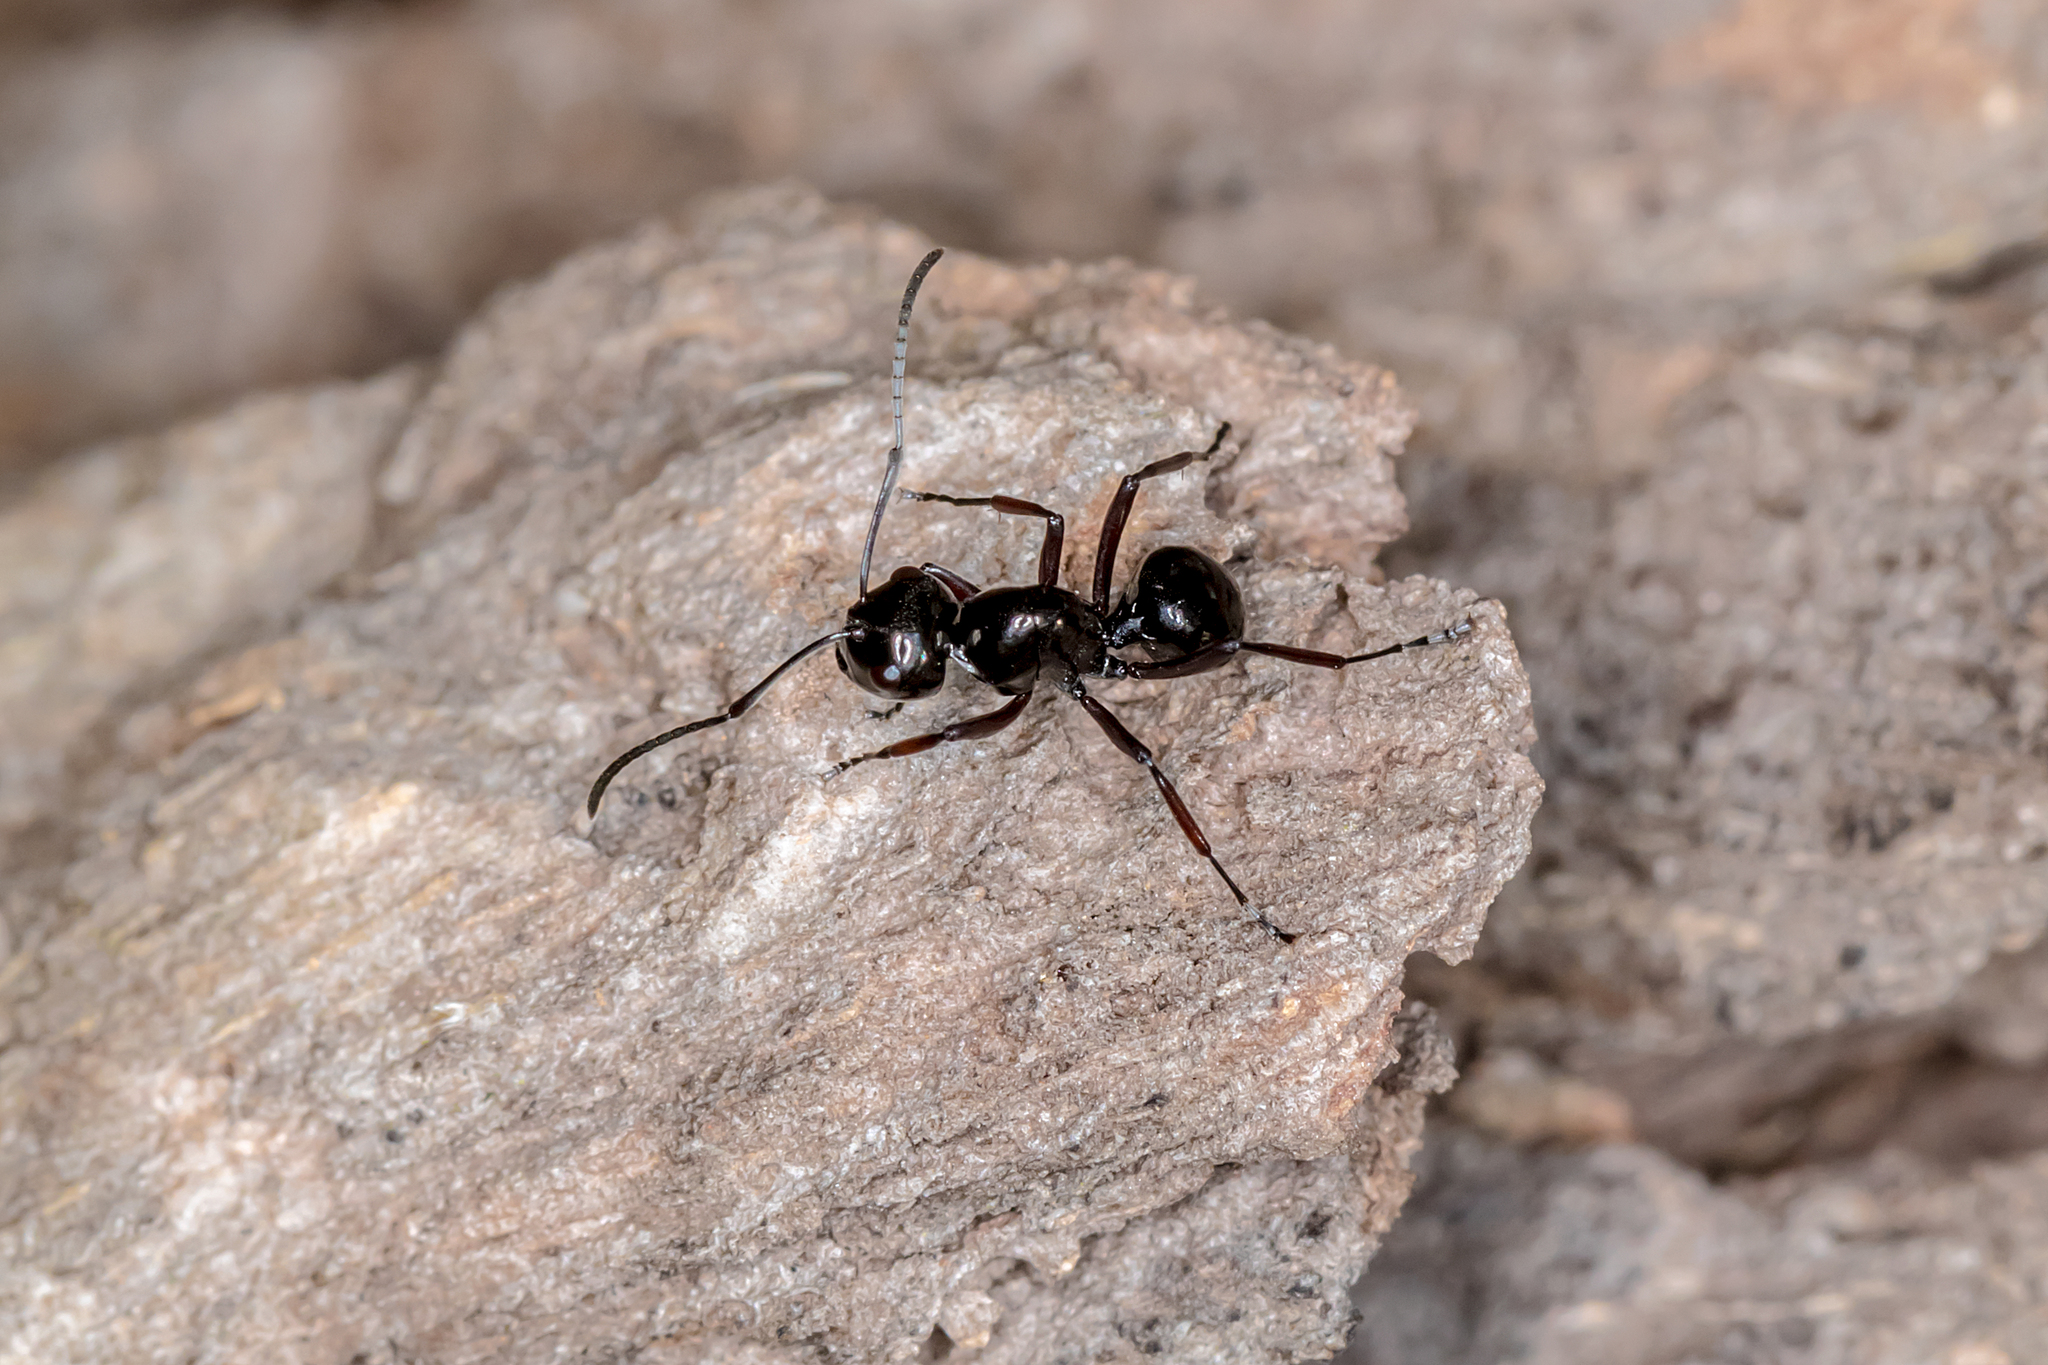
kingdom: Animalia
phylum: Arthropoda
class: Insecta
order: Hymenoptera
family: Formicidae
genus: Polyrhachis
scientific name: Polyrhachis australis
